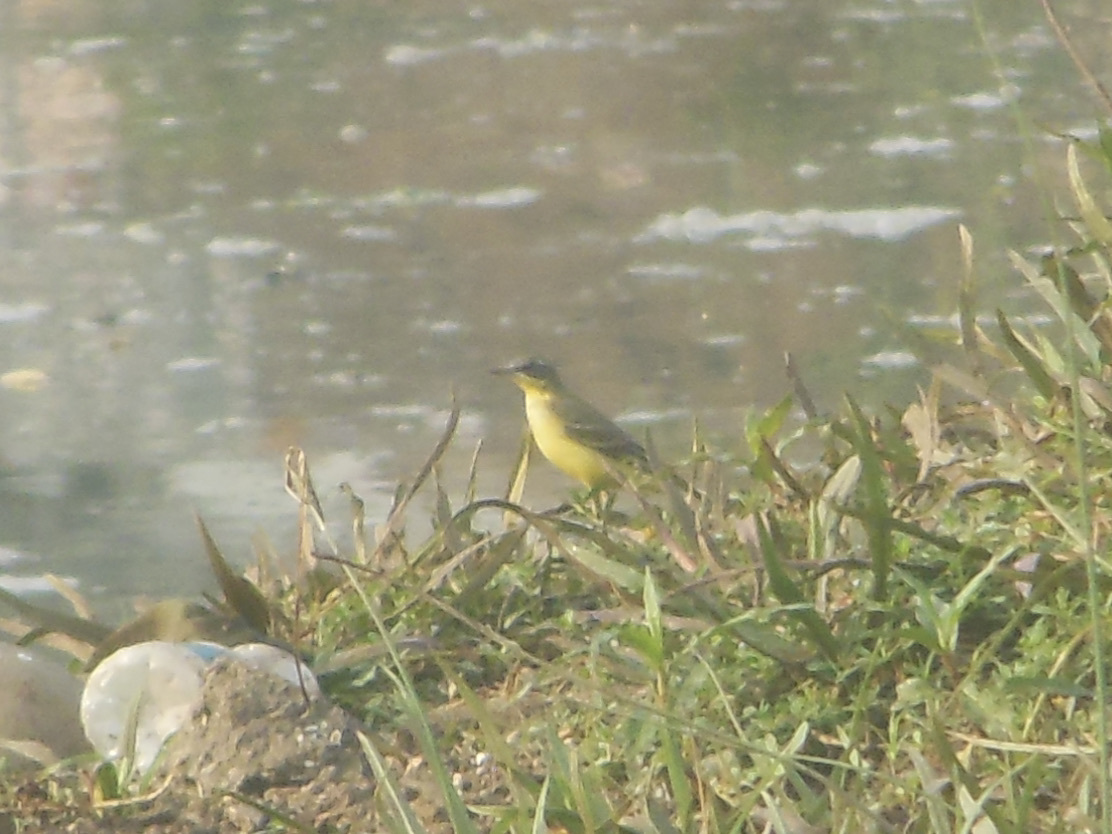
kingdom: Animalia
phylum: Chordata
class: Aves
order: Passeriformes
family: Motacillidae
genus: Motacilla
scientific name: Motacilla flava
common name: Western yellow wagtail
